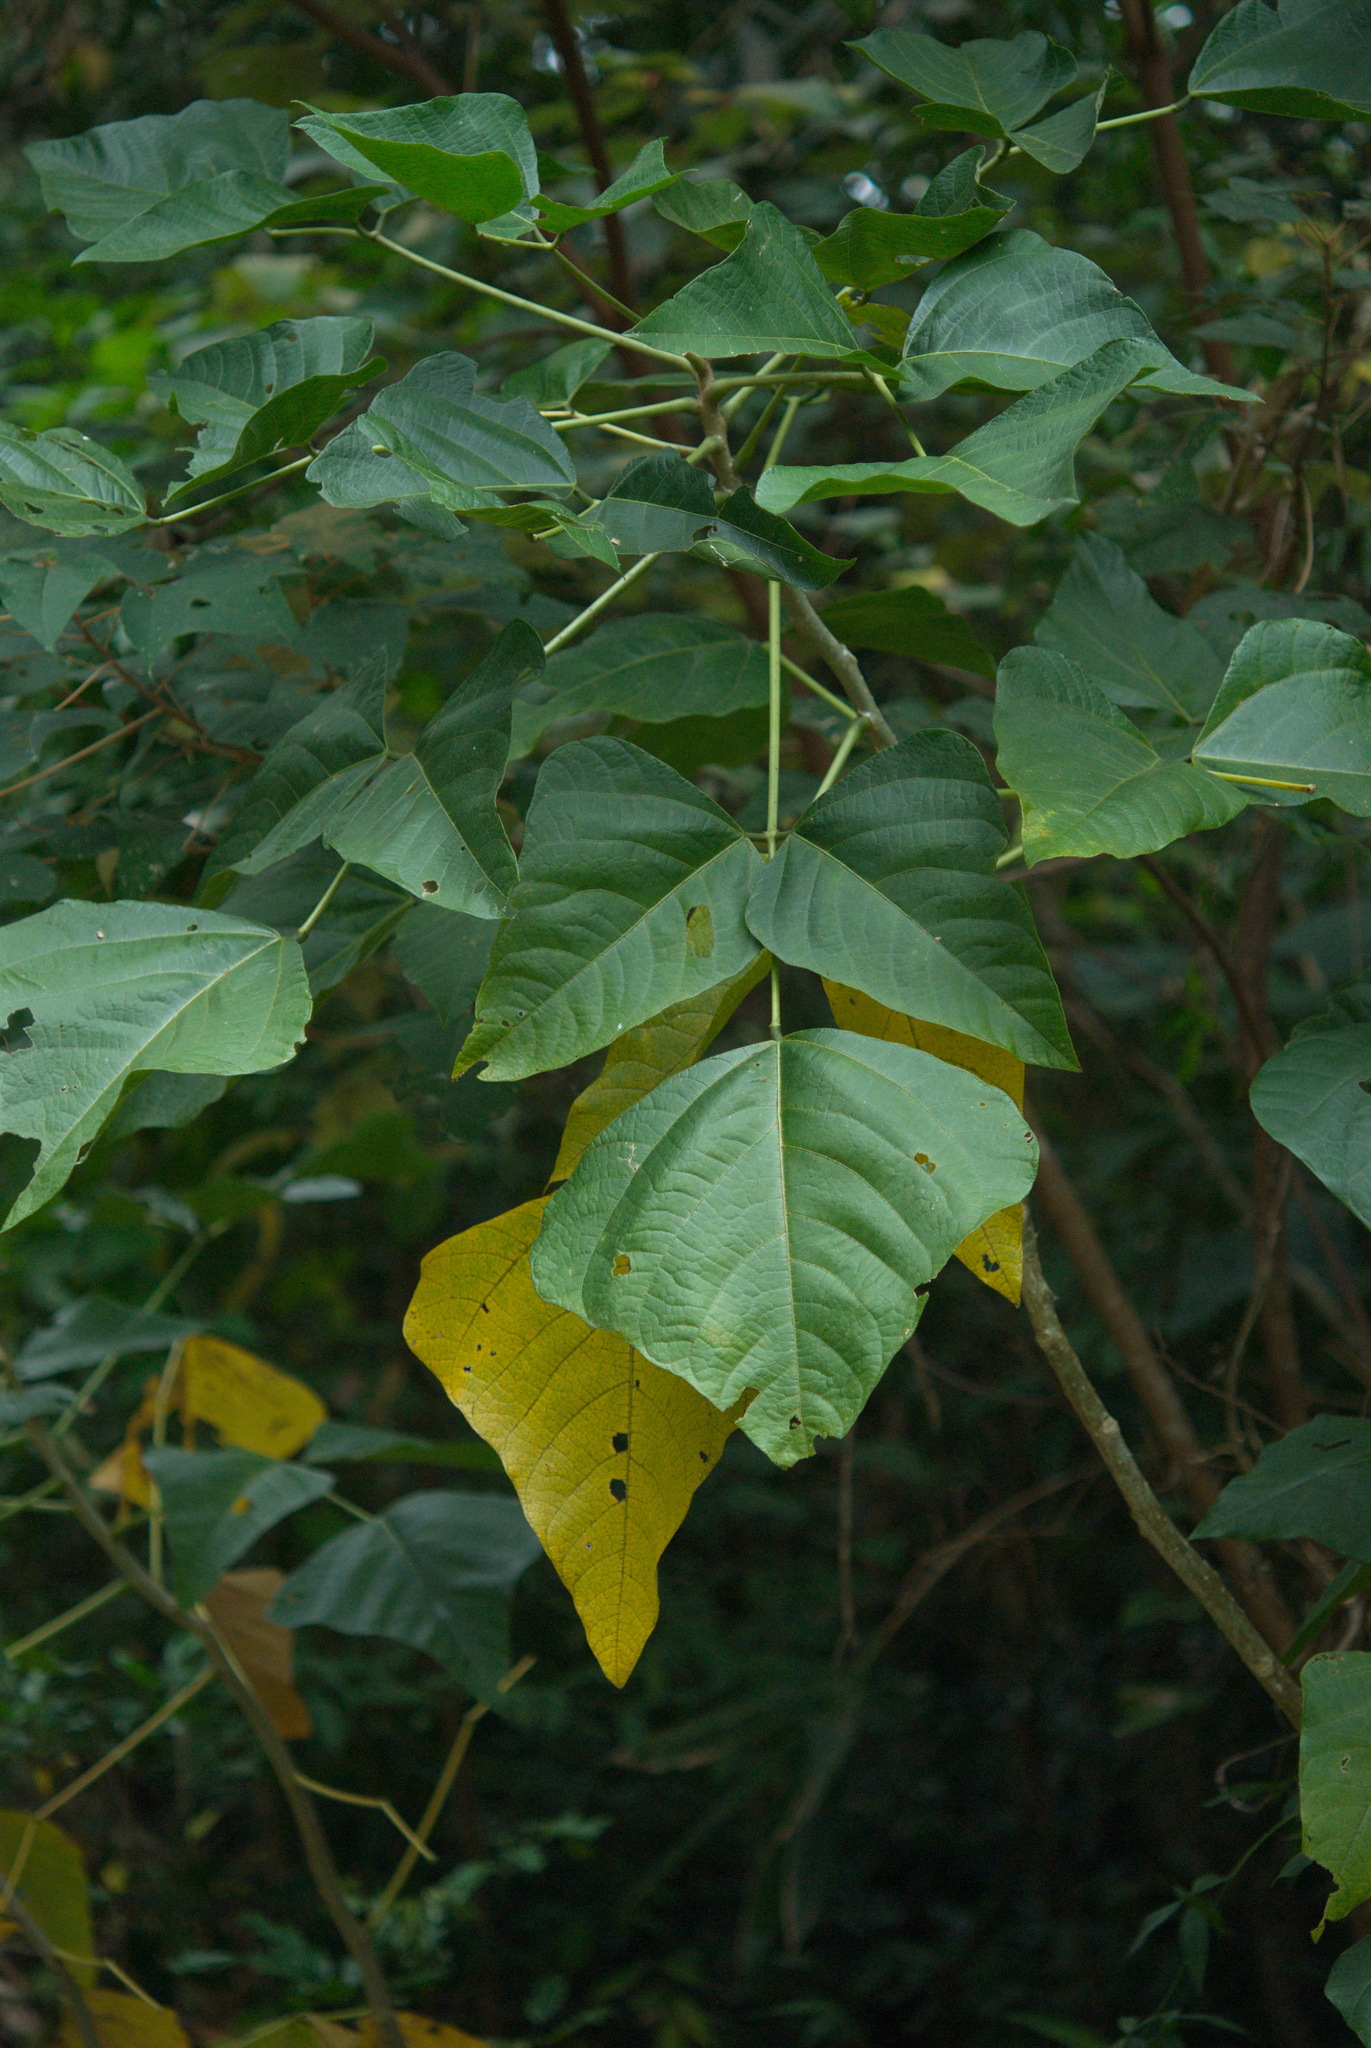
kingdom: Plantae
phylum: Tracheophyta
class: Magnoliopsida
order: Fabales
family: Fabaceae
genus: Erythrina
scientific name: Erythrina variegata
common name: Indian coral tree
